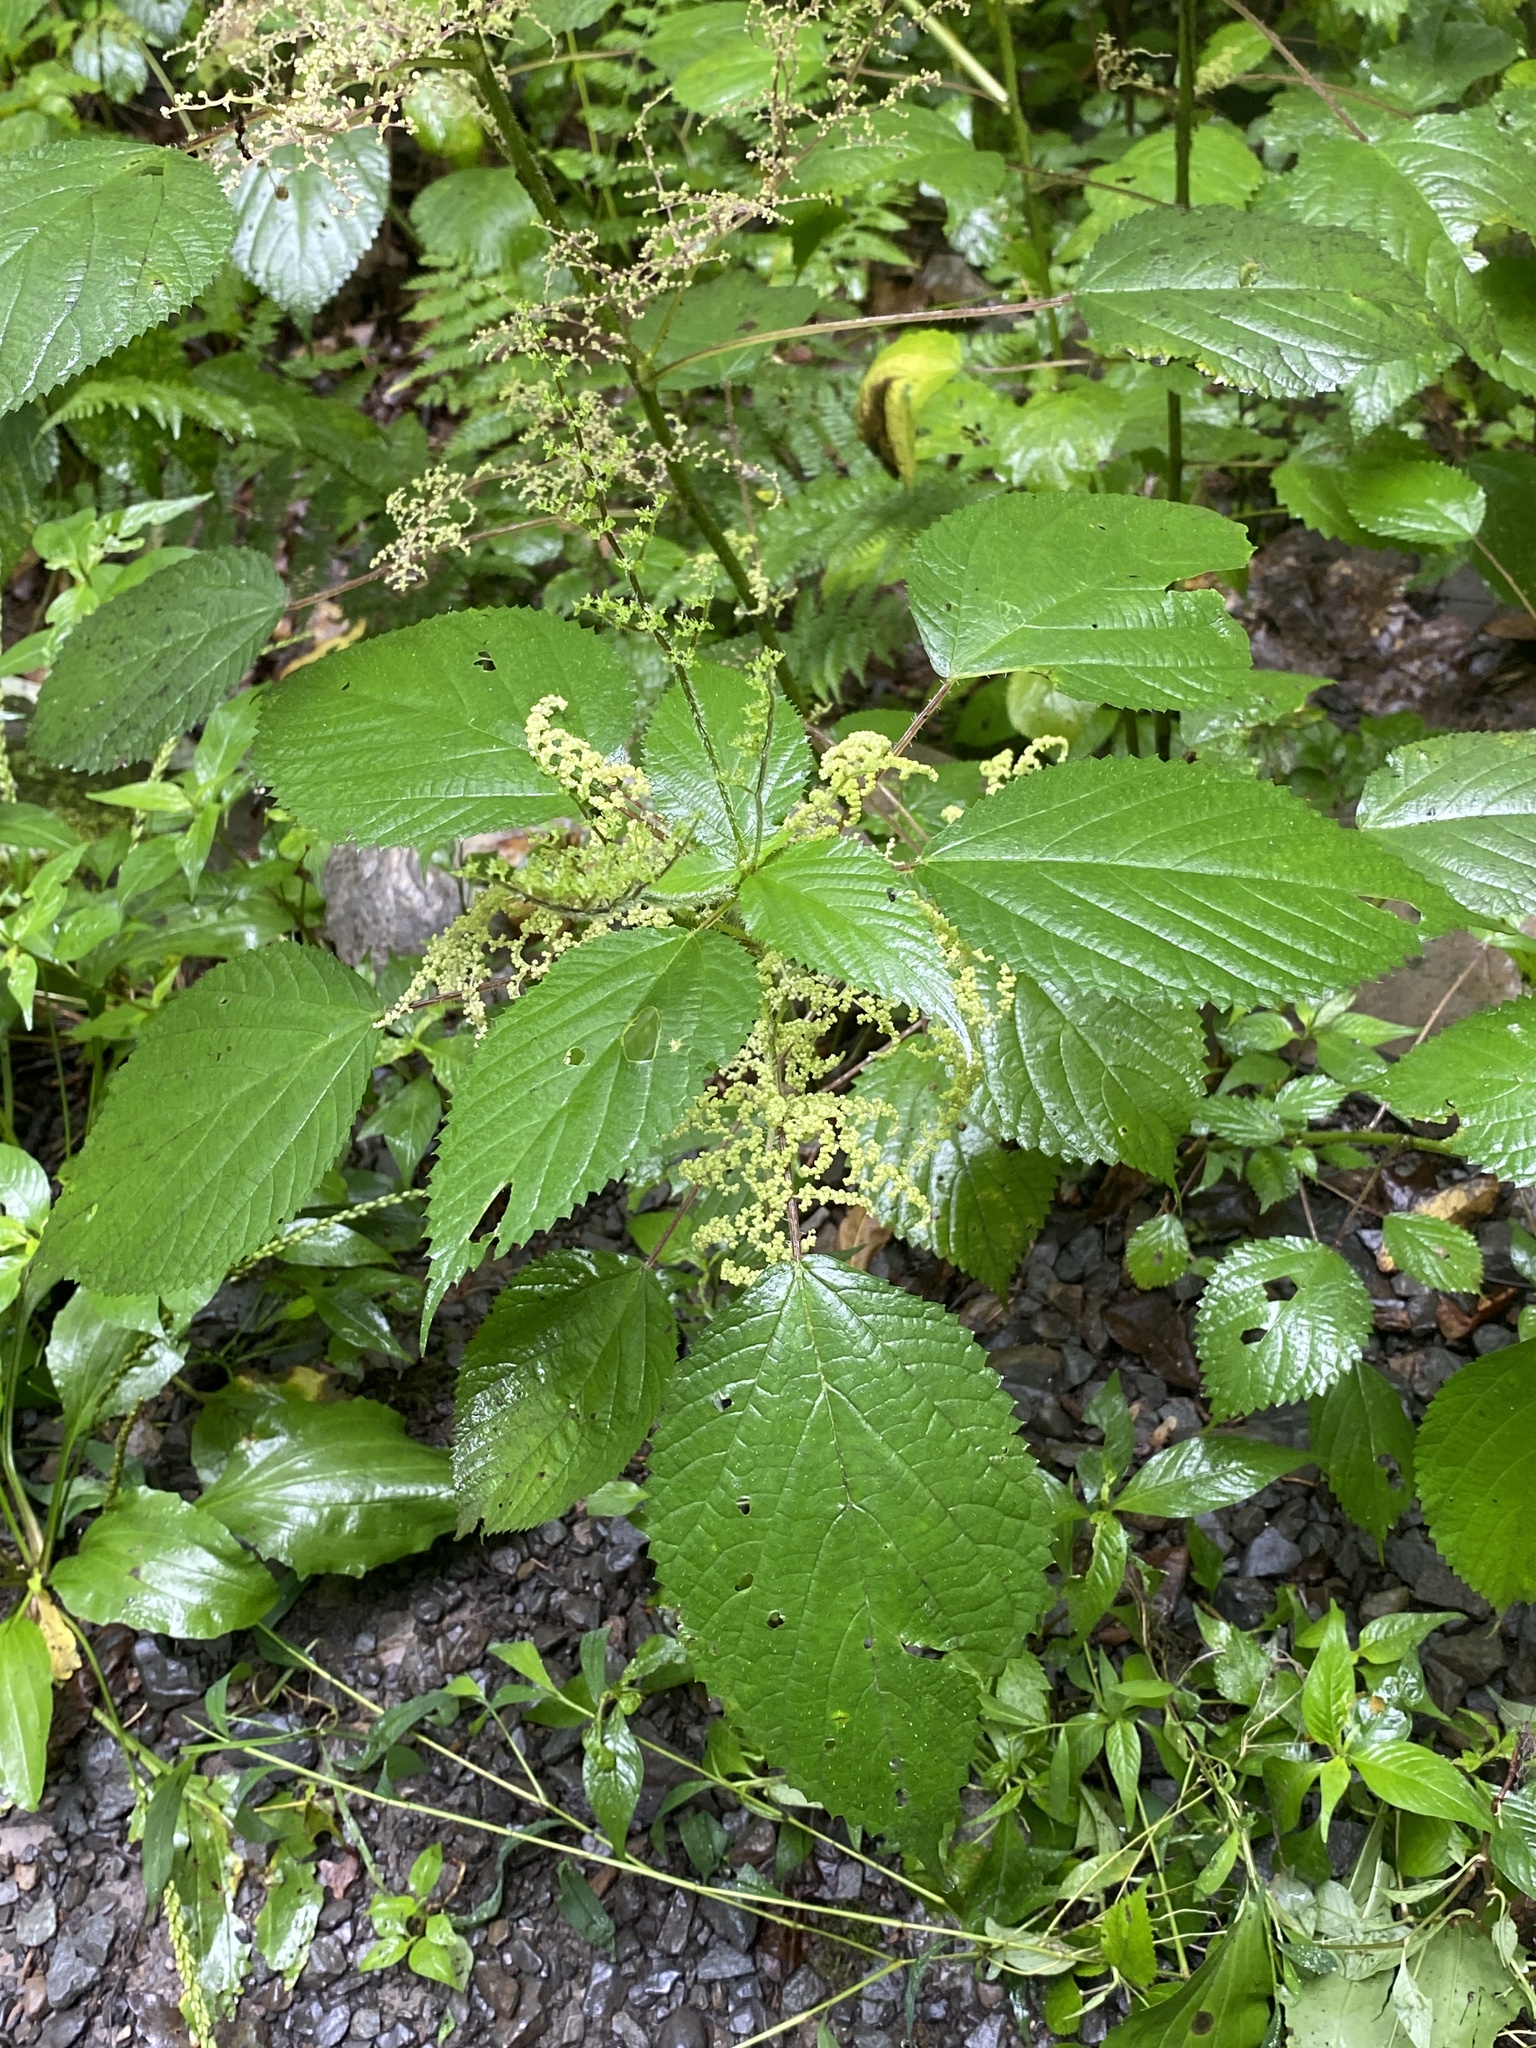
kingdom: Plantae
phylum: Tracheophyta
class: Magnoliopsida
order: Rosales
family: Urticaceae
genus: Laportea
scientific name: Laportea canadensis
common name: Canada nettle
